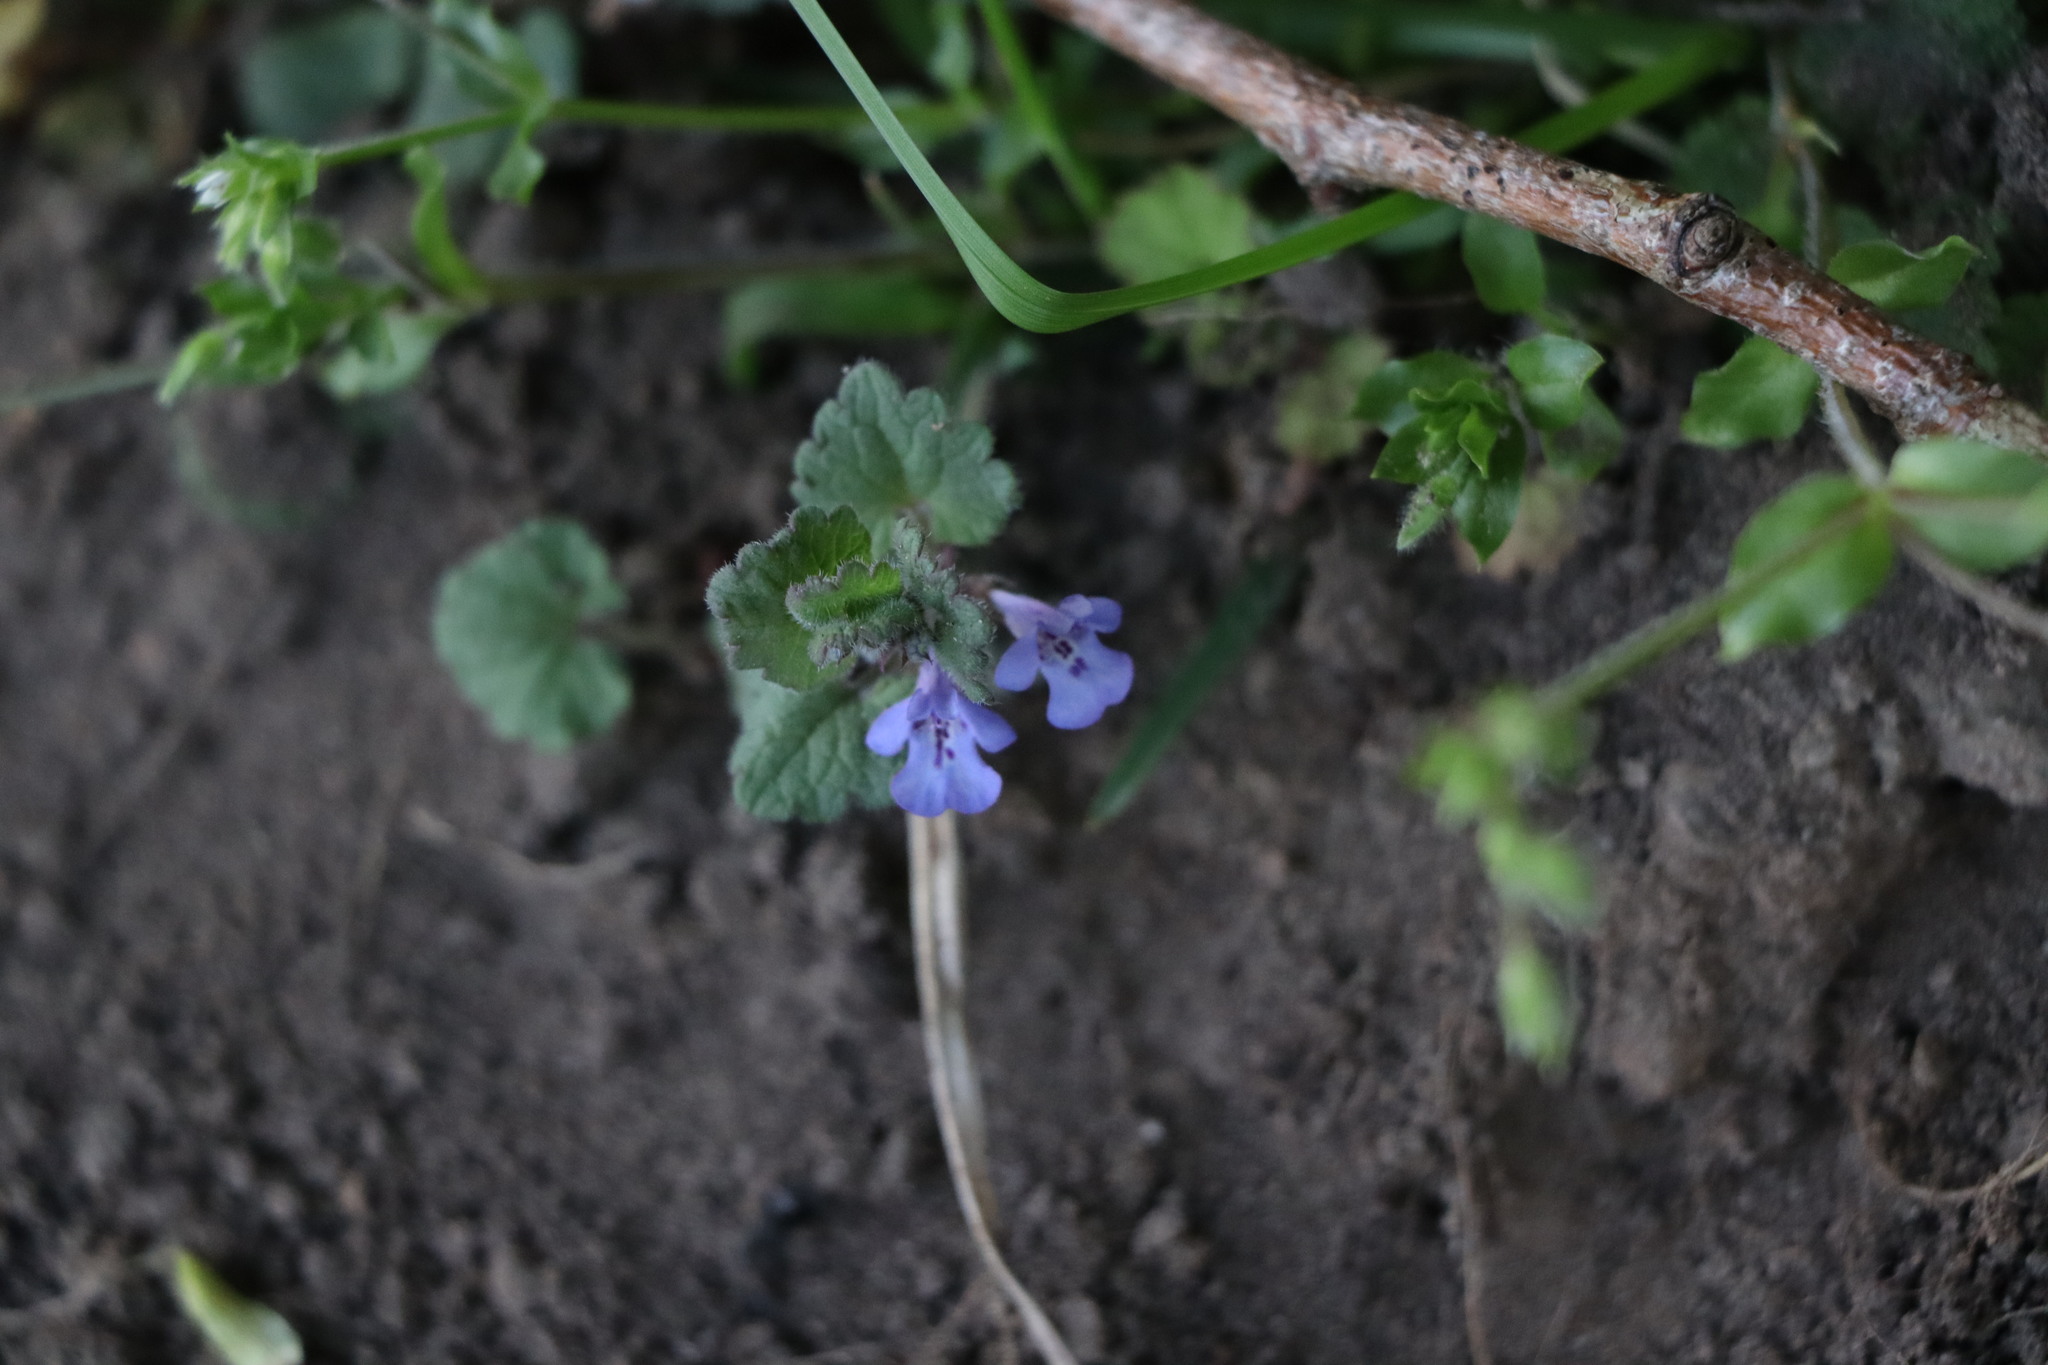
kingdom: Plantae
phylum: Tracheophyta
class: Magnoliopsida
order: Lamiales
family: Lamiaceae
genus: Glechoma
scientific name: Glechoma hederacea
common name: Ground ivy
